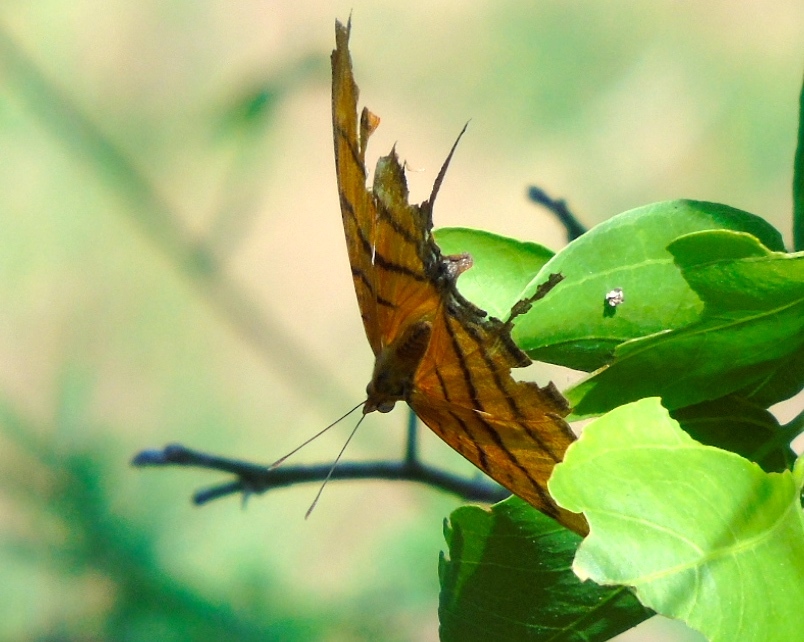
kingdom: Animalia
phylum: Arthropoda
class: Insecta
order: Lepidoptera
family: Nymphalidae
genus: Marpesia
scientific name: Marpesia petreus
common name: Red dagger wing
